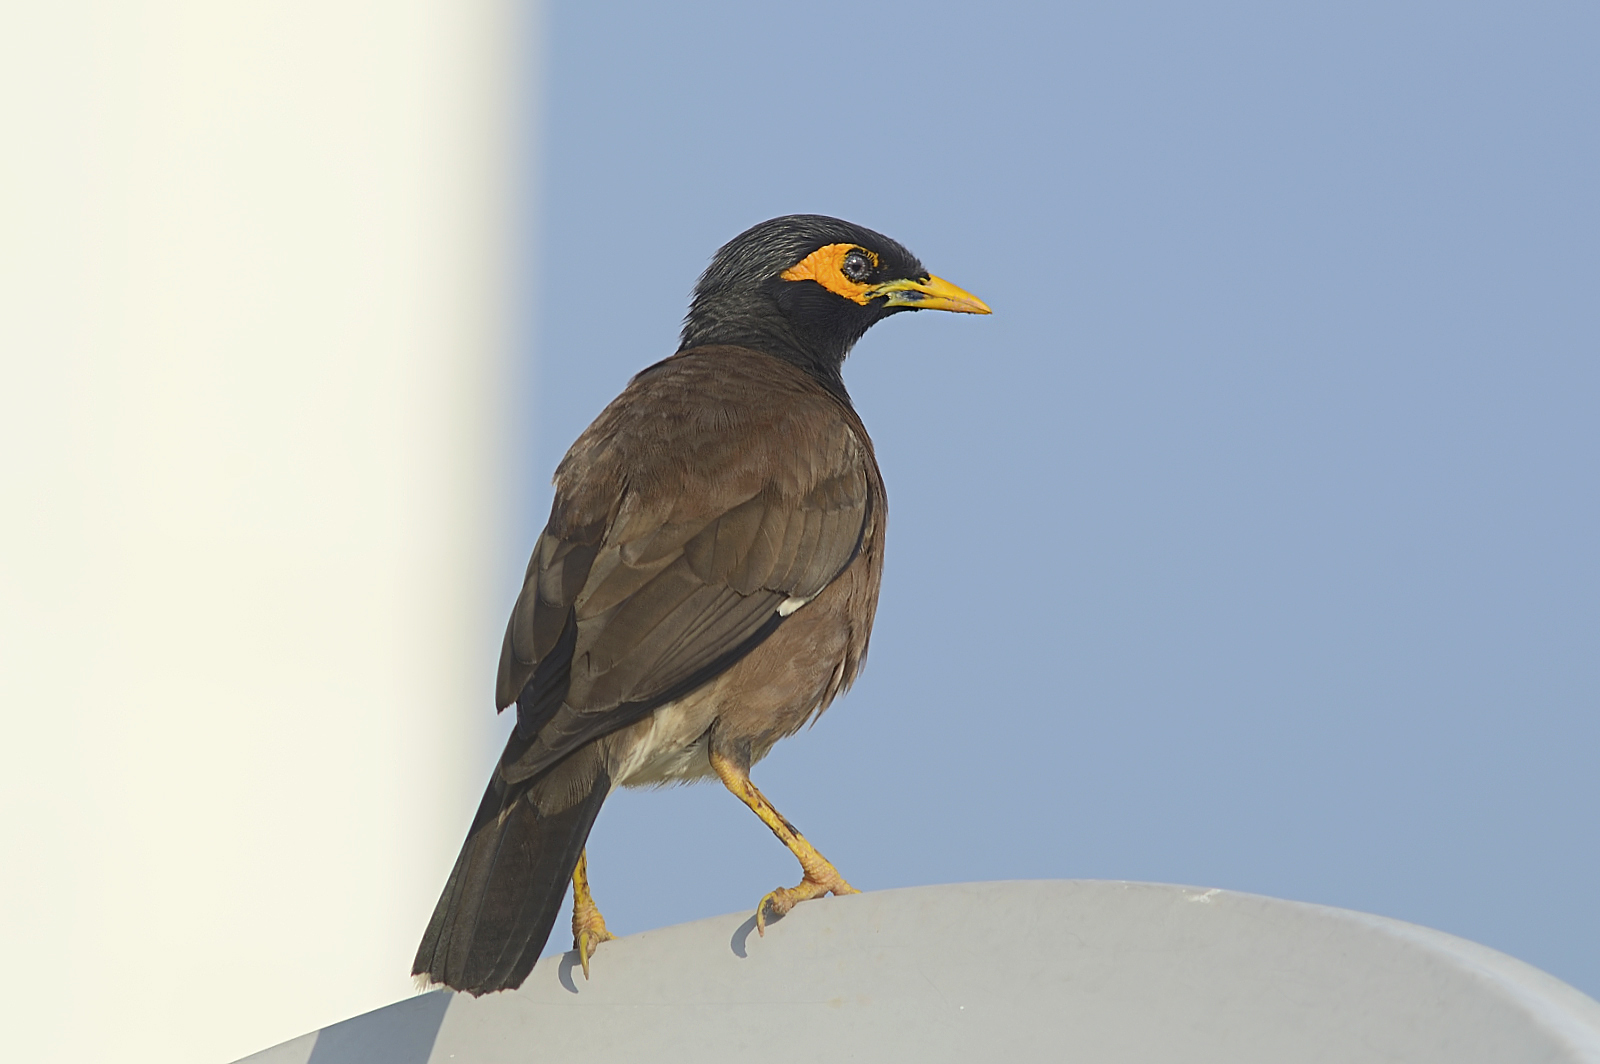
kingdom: Animalia
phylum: Chordata
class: Aves
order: Passeriformes
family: Sturnidae
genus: Acridotheres
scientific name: Acridotheres tristis
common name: Common myna
